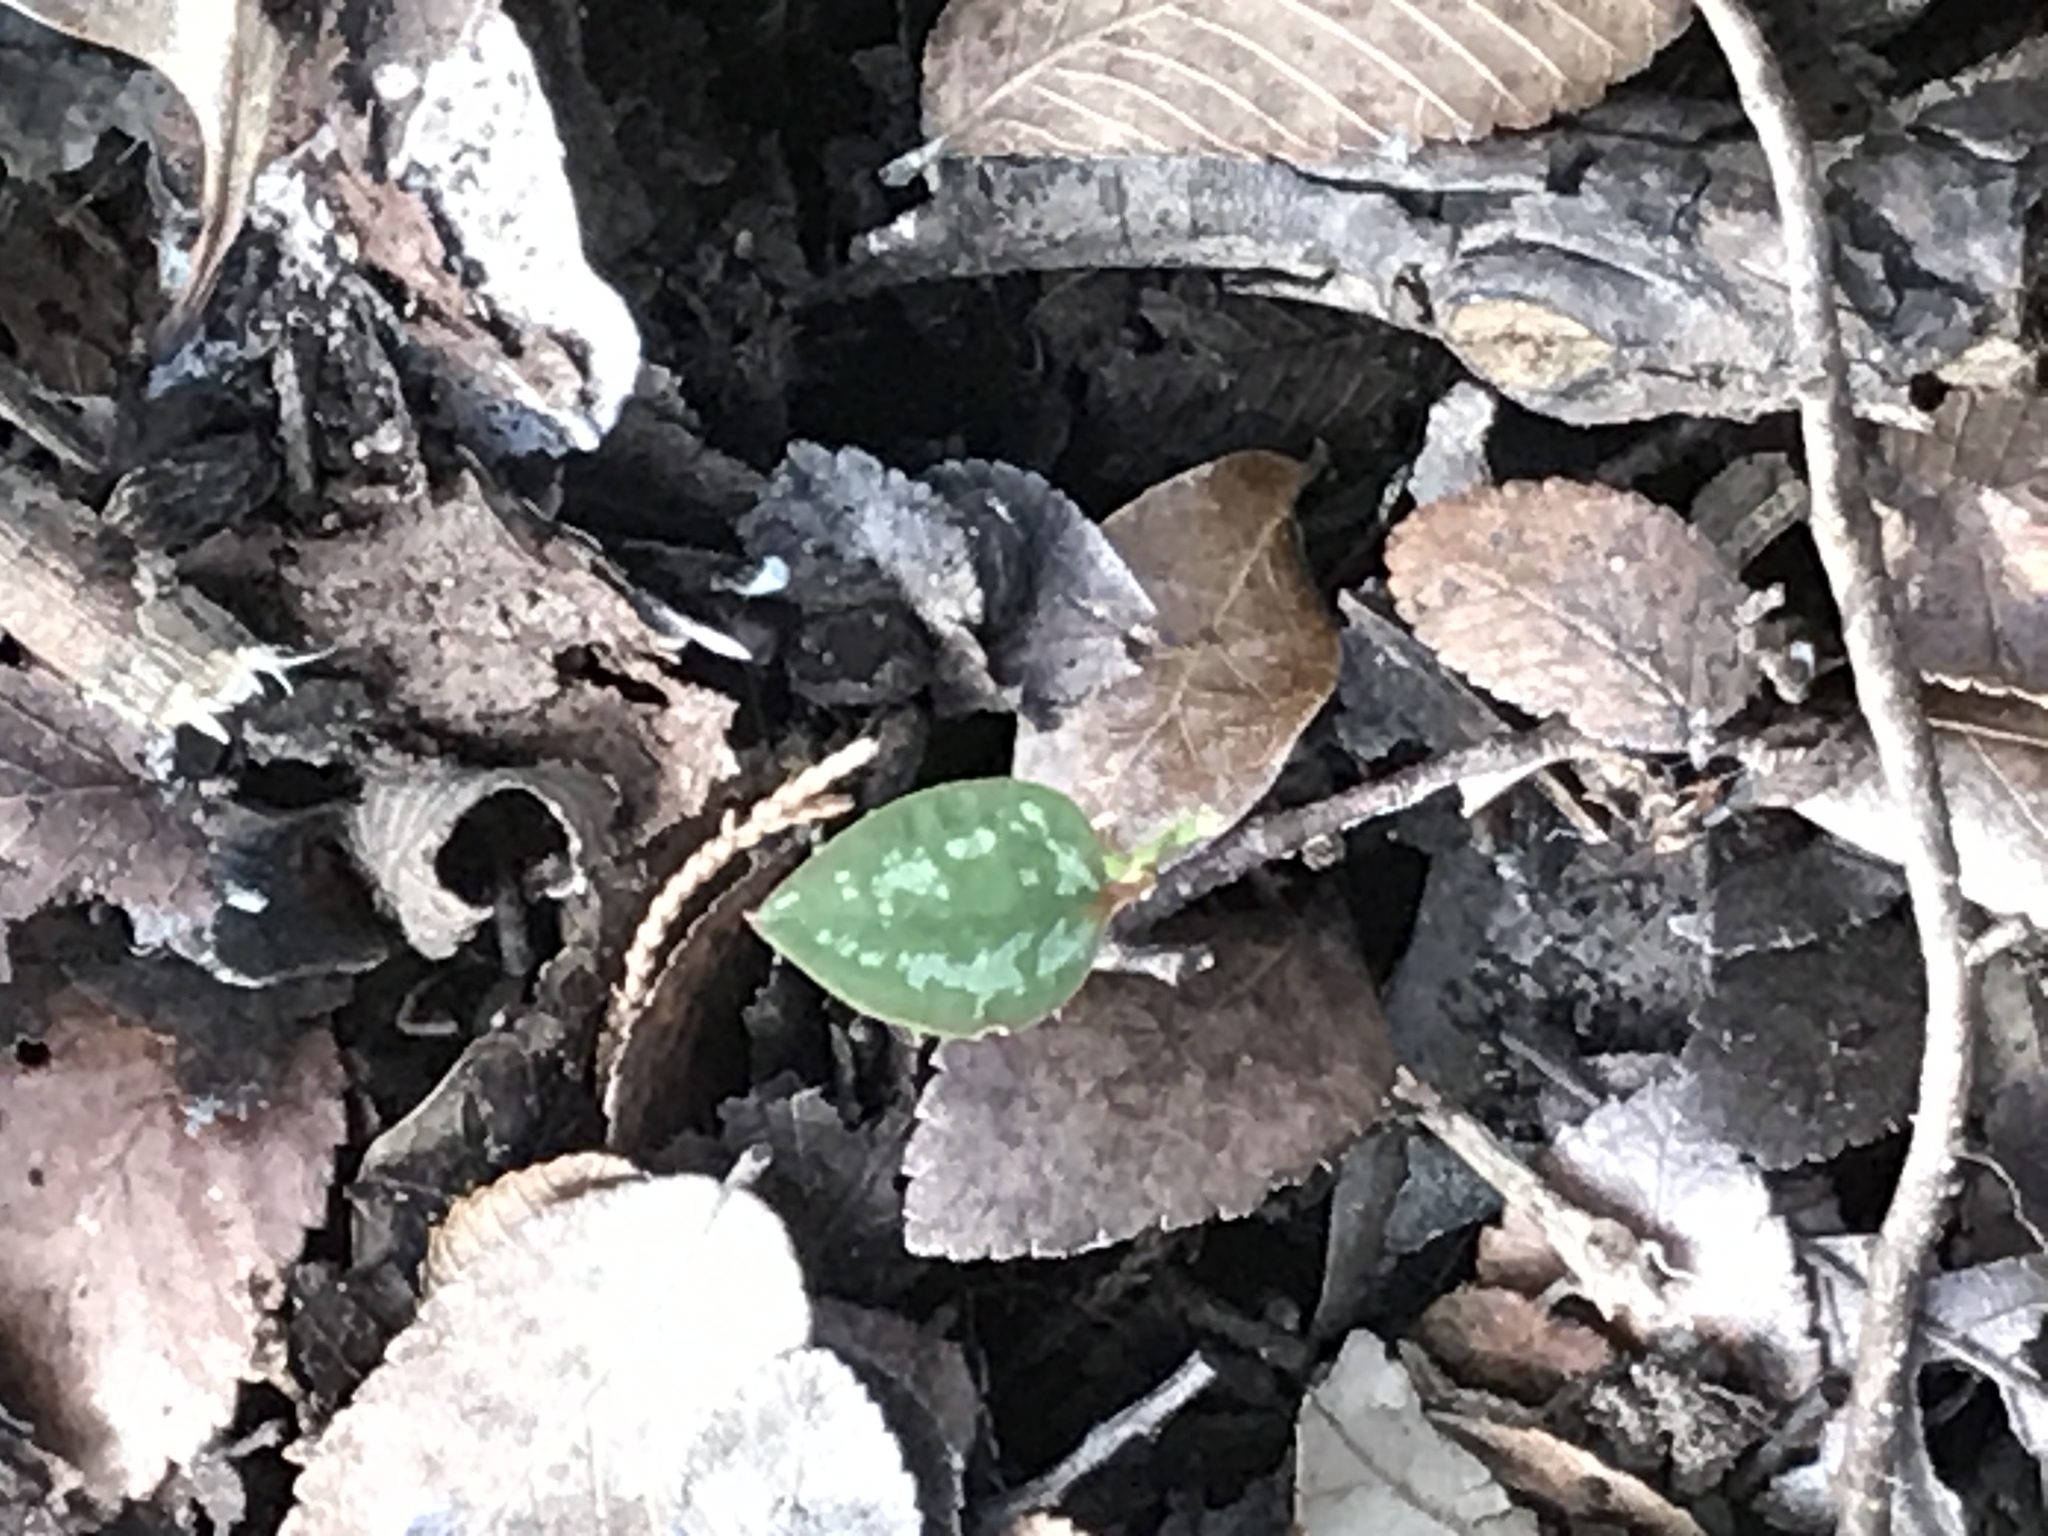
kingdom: Plantae
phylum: Tracheophyta
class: Liliopsida
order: Liliales
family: Smilacaceae
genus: Smilax
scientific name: Smilax bona-nox
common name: Catbrier
